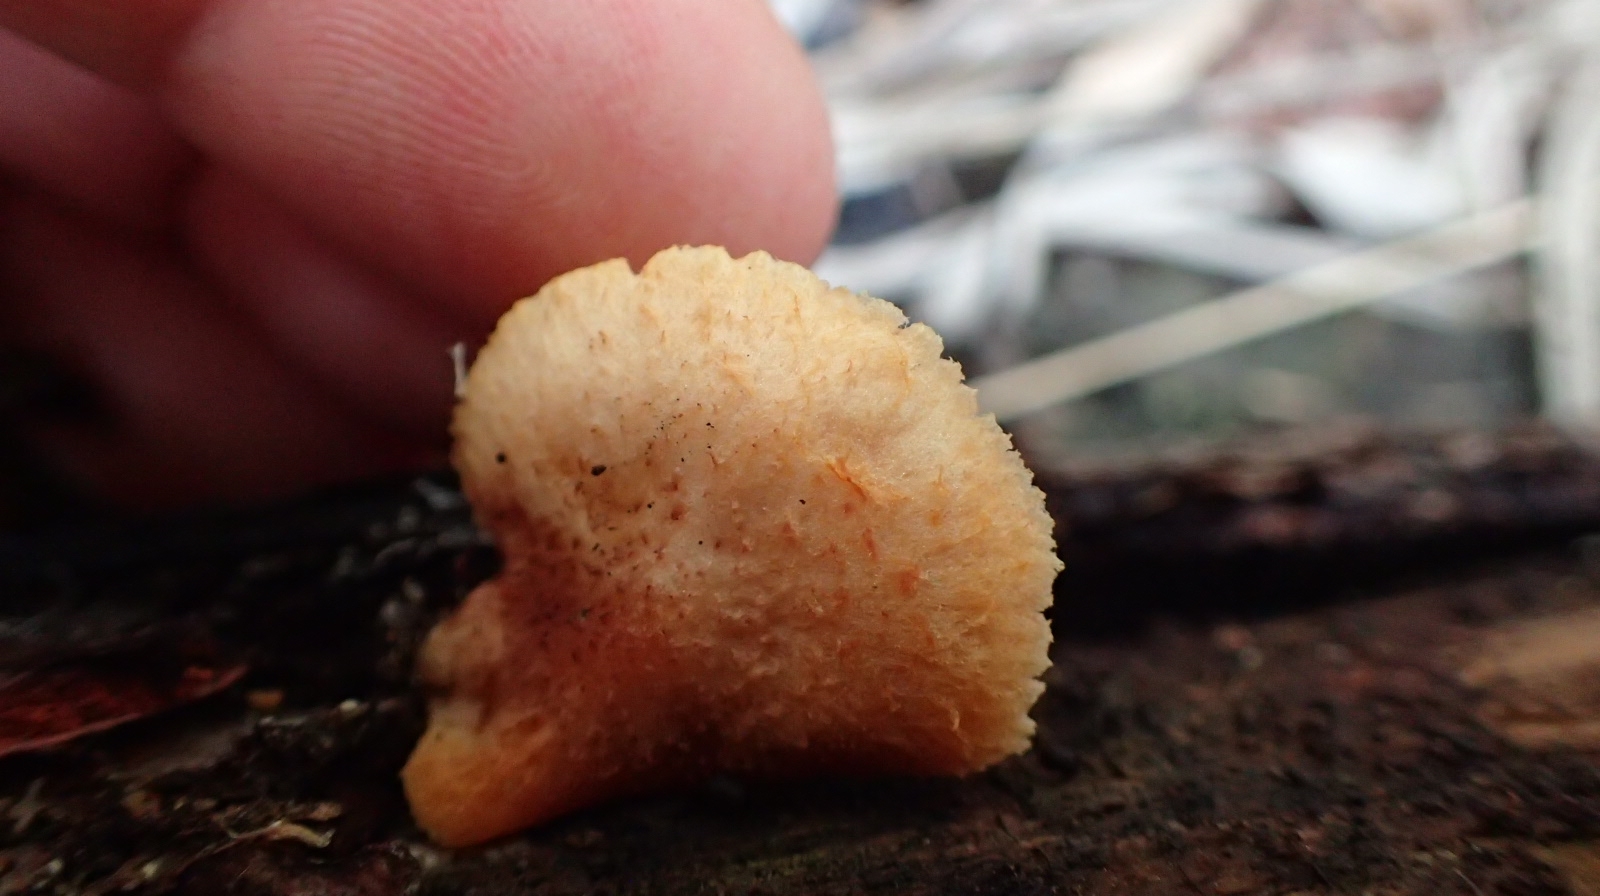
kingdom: Fungi
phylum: Basidiomycota
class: Agaricomycetes
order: Agaricales
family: Crepidotaceae
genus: Crepidotus
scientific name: Crepidotus mollis
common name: Peeling oysterling
